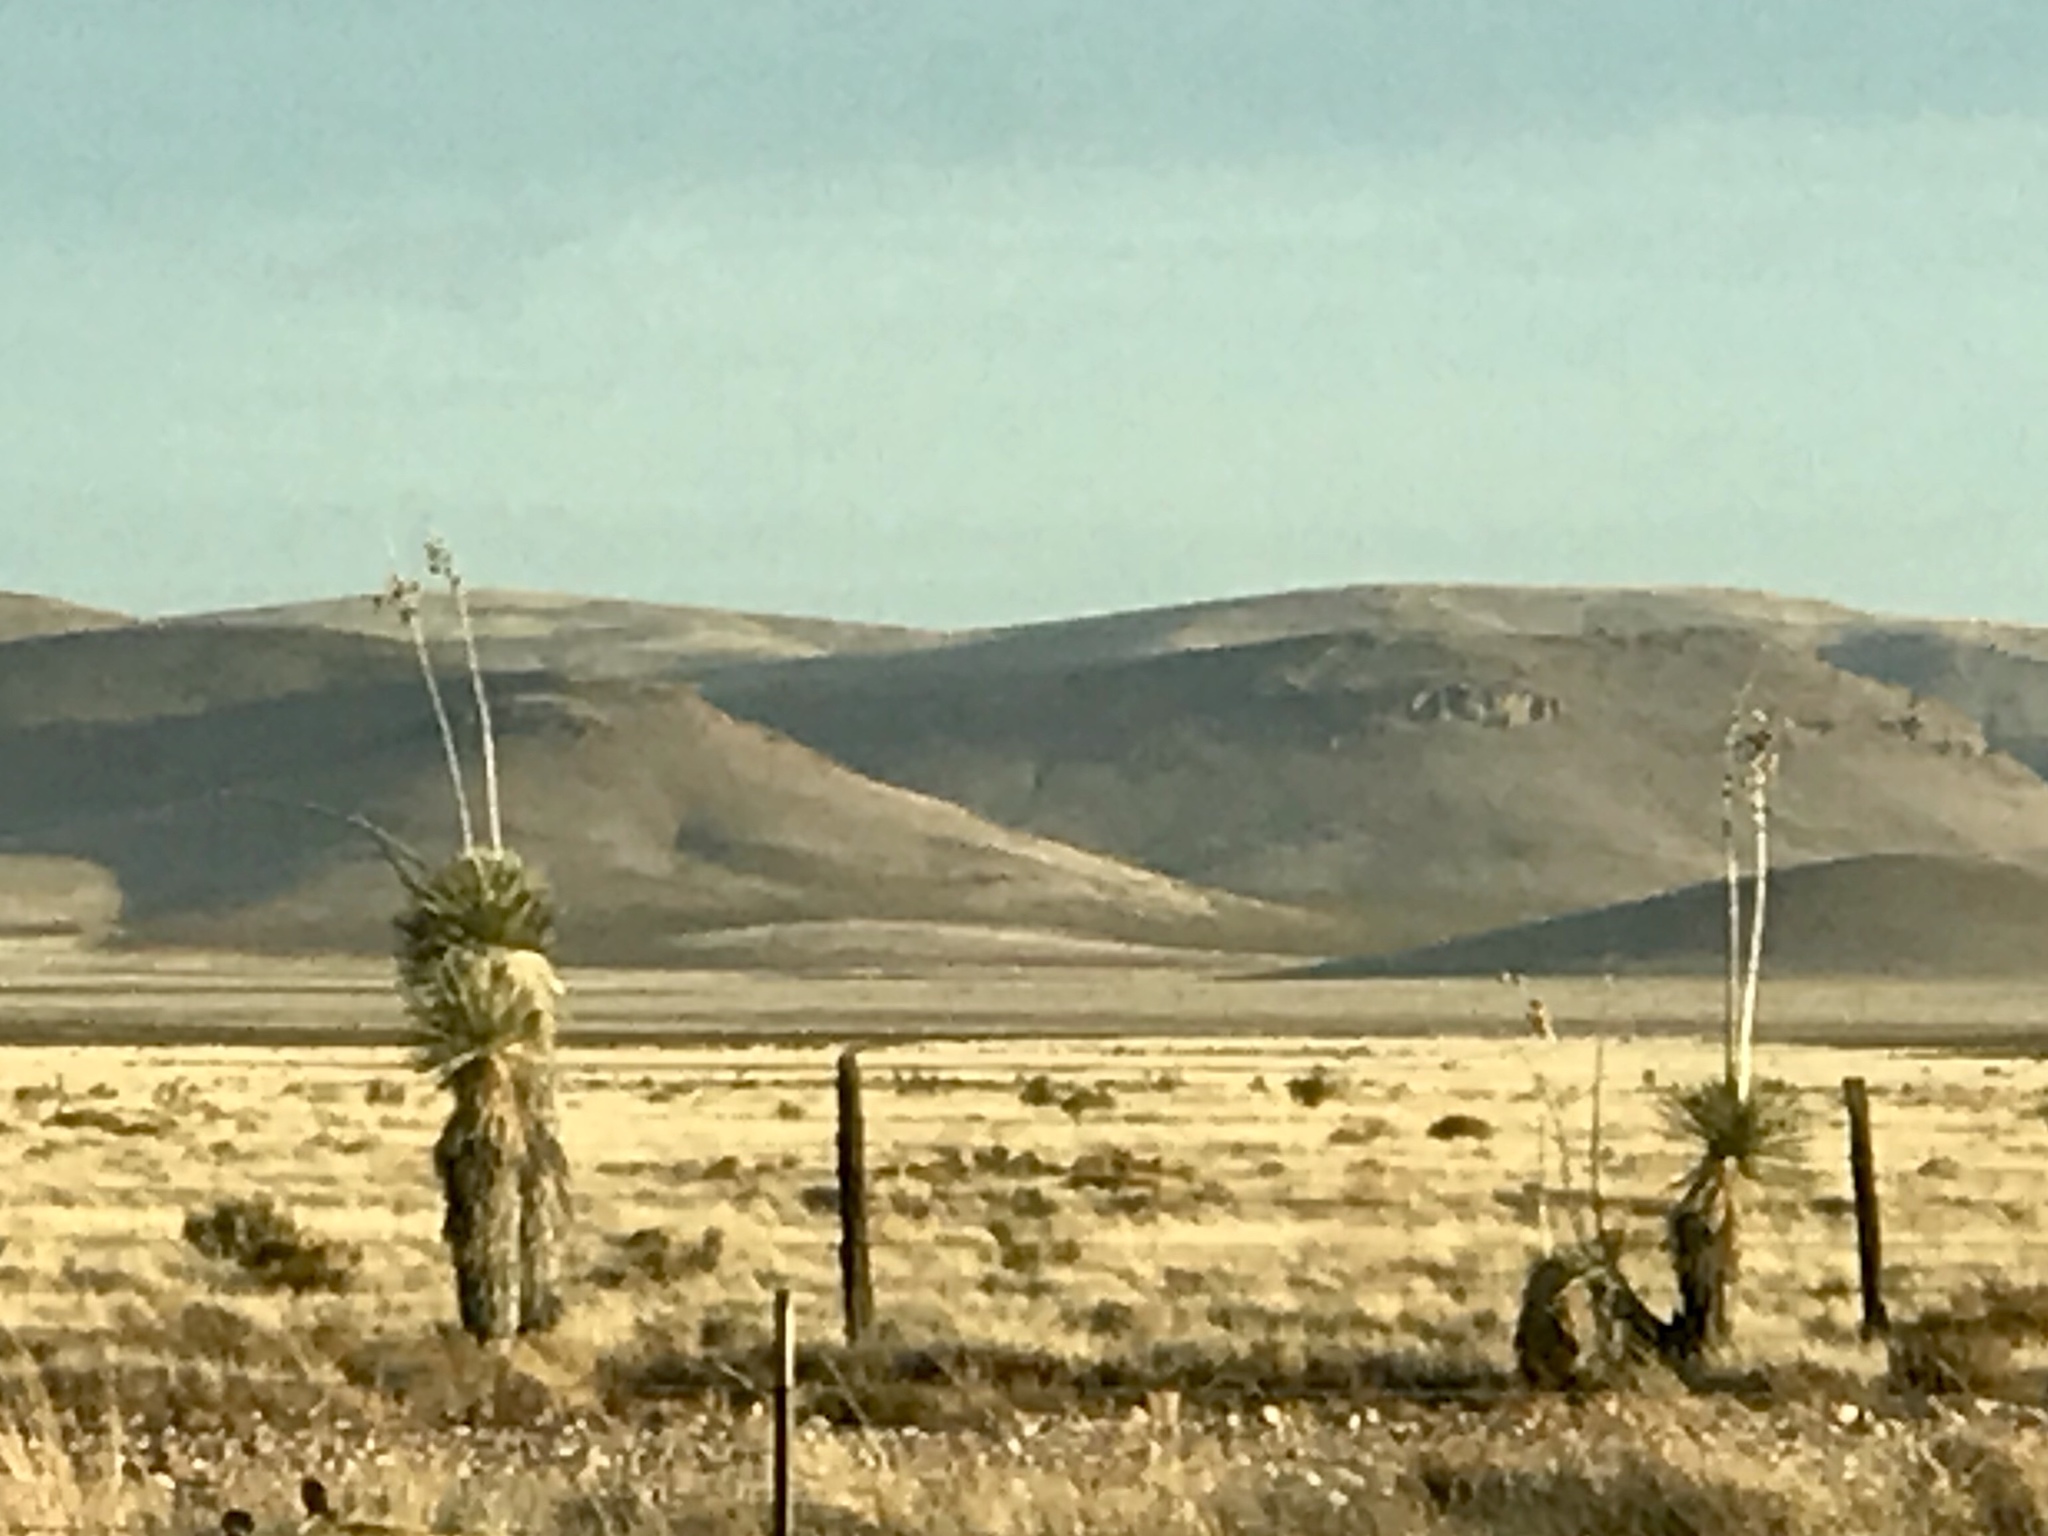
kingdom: Plantae
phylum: Tracheophyta
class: Liliopsida
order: Asparagales
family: Asparagaceae
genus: Yucca
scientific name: Yucca elata
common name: Palmella
